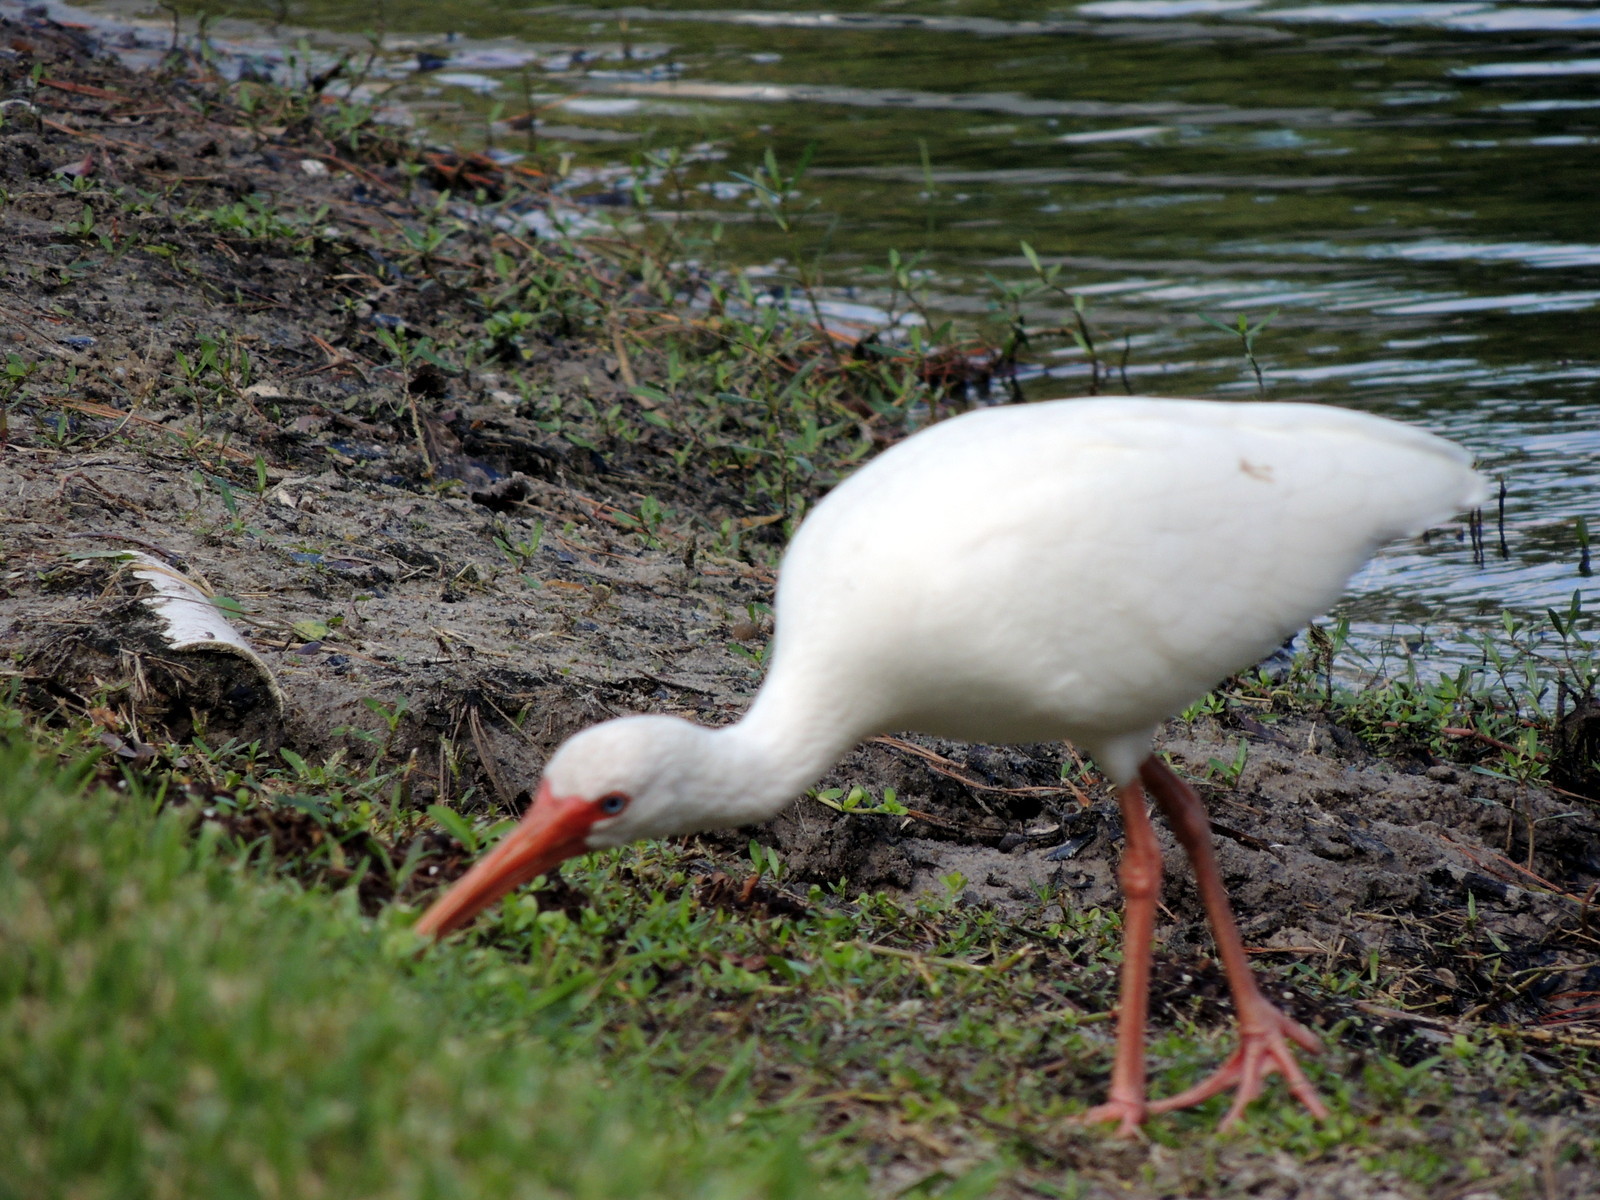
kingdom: Animalia
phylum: Chordata
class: Aves
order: Pelecaniformes
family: Threskiornithidae
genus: Eudocimus
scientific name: Eudocimus albus
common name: White ibis
